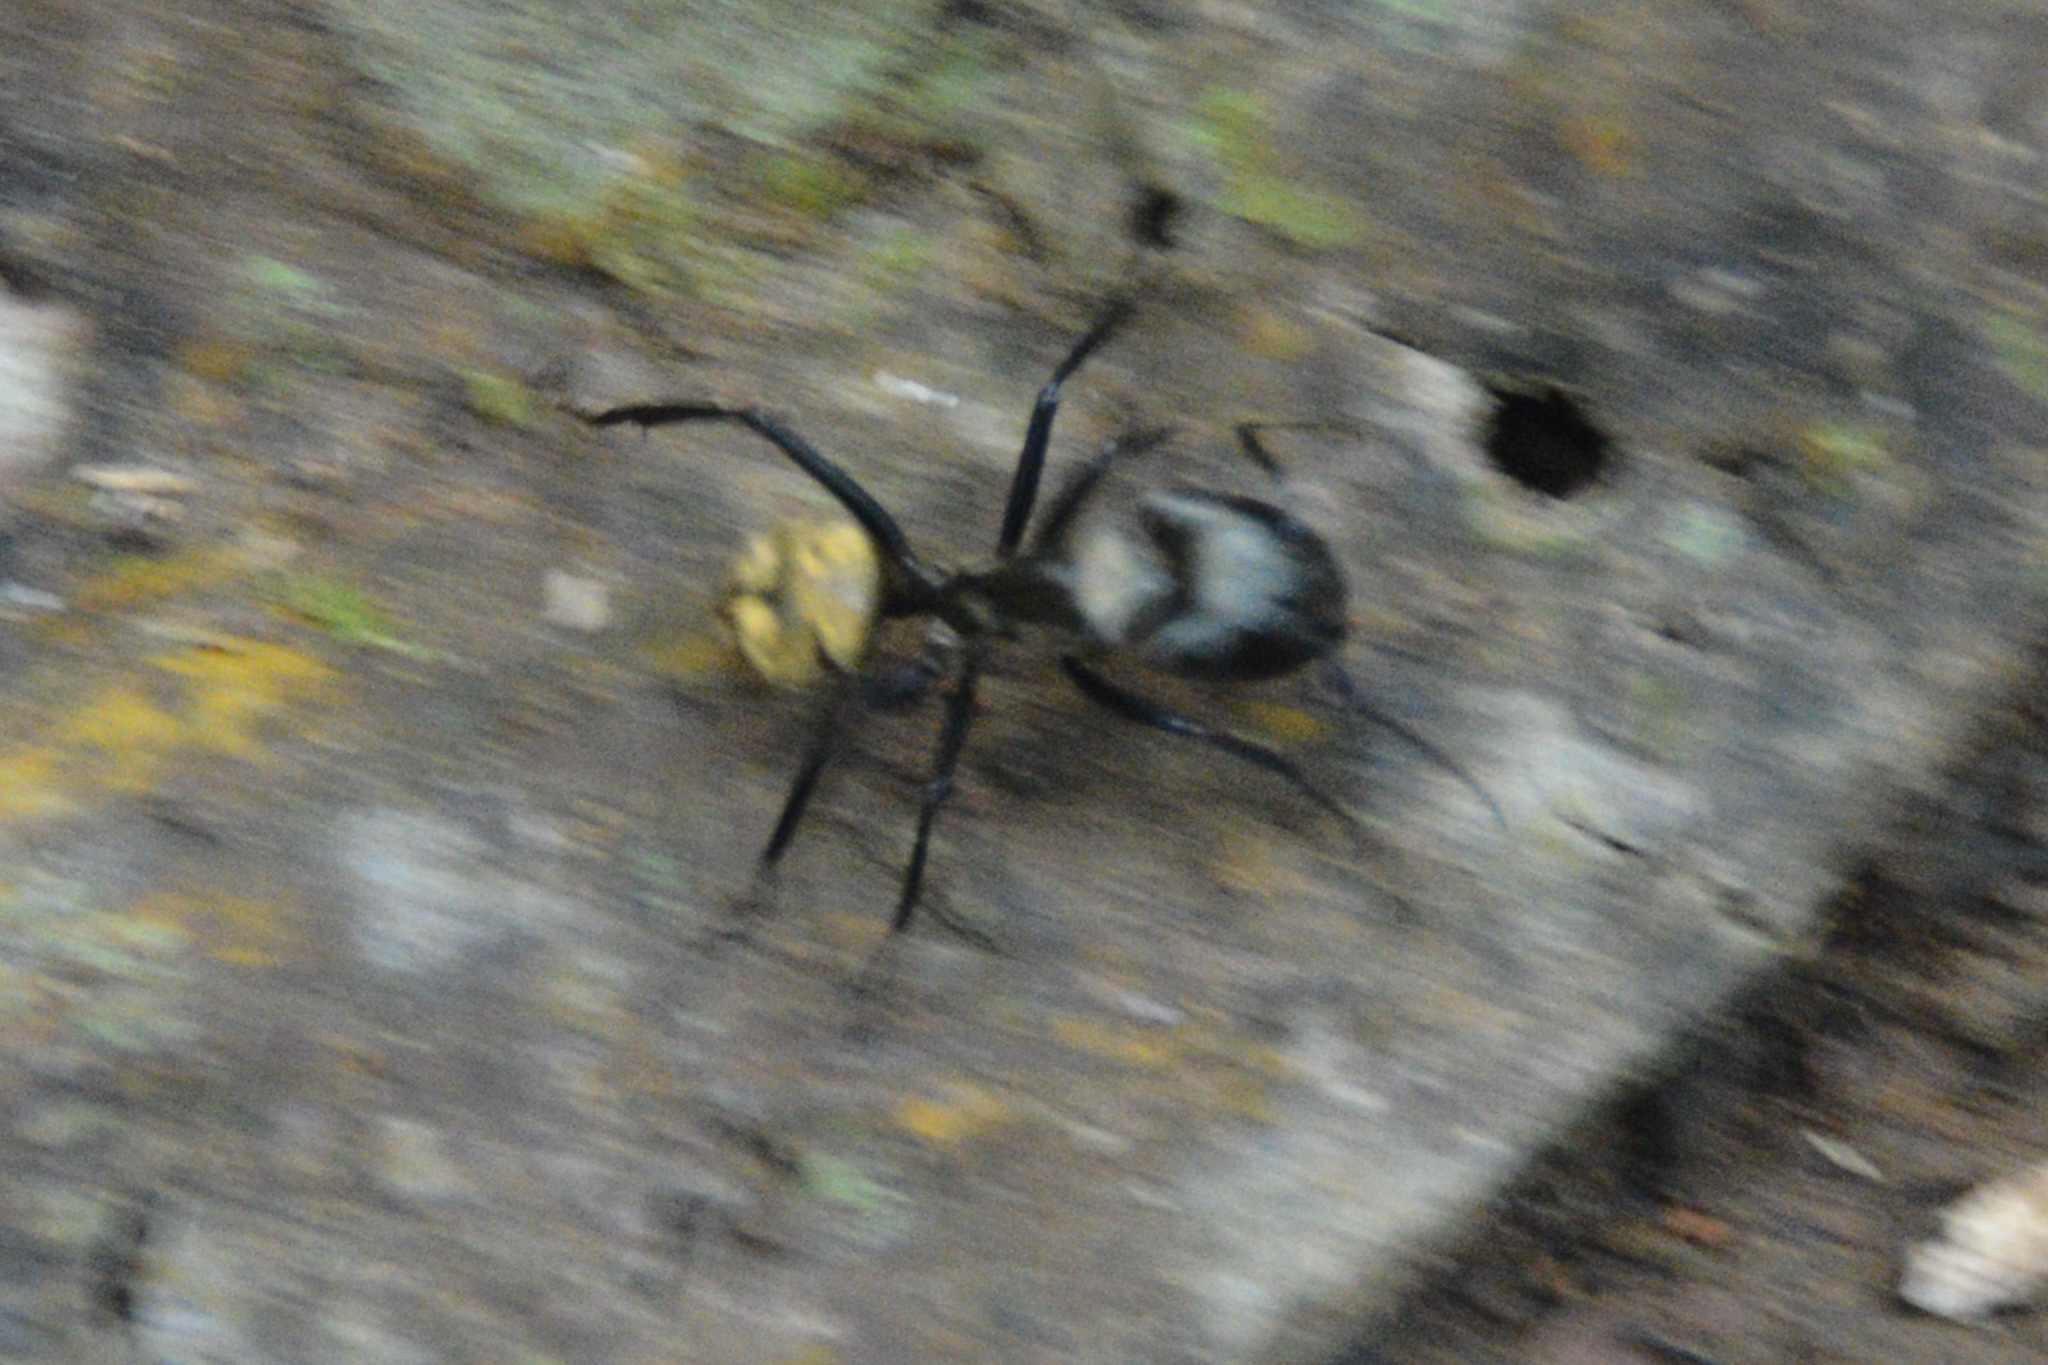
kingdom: Animalia
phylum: Arthropoda
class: Insecta
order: Hymenoptera
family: Formicidae
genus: Camponotus
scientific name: Camponotus sericeiventris
